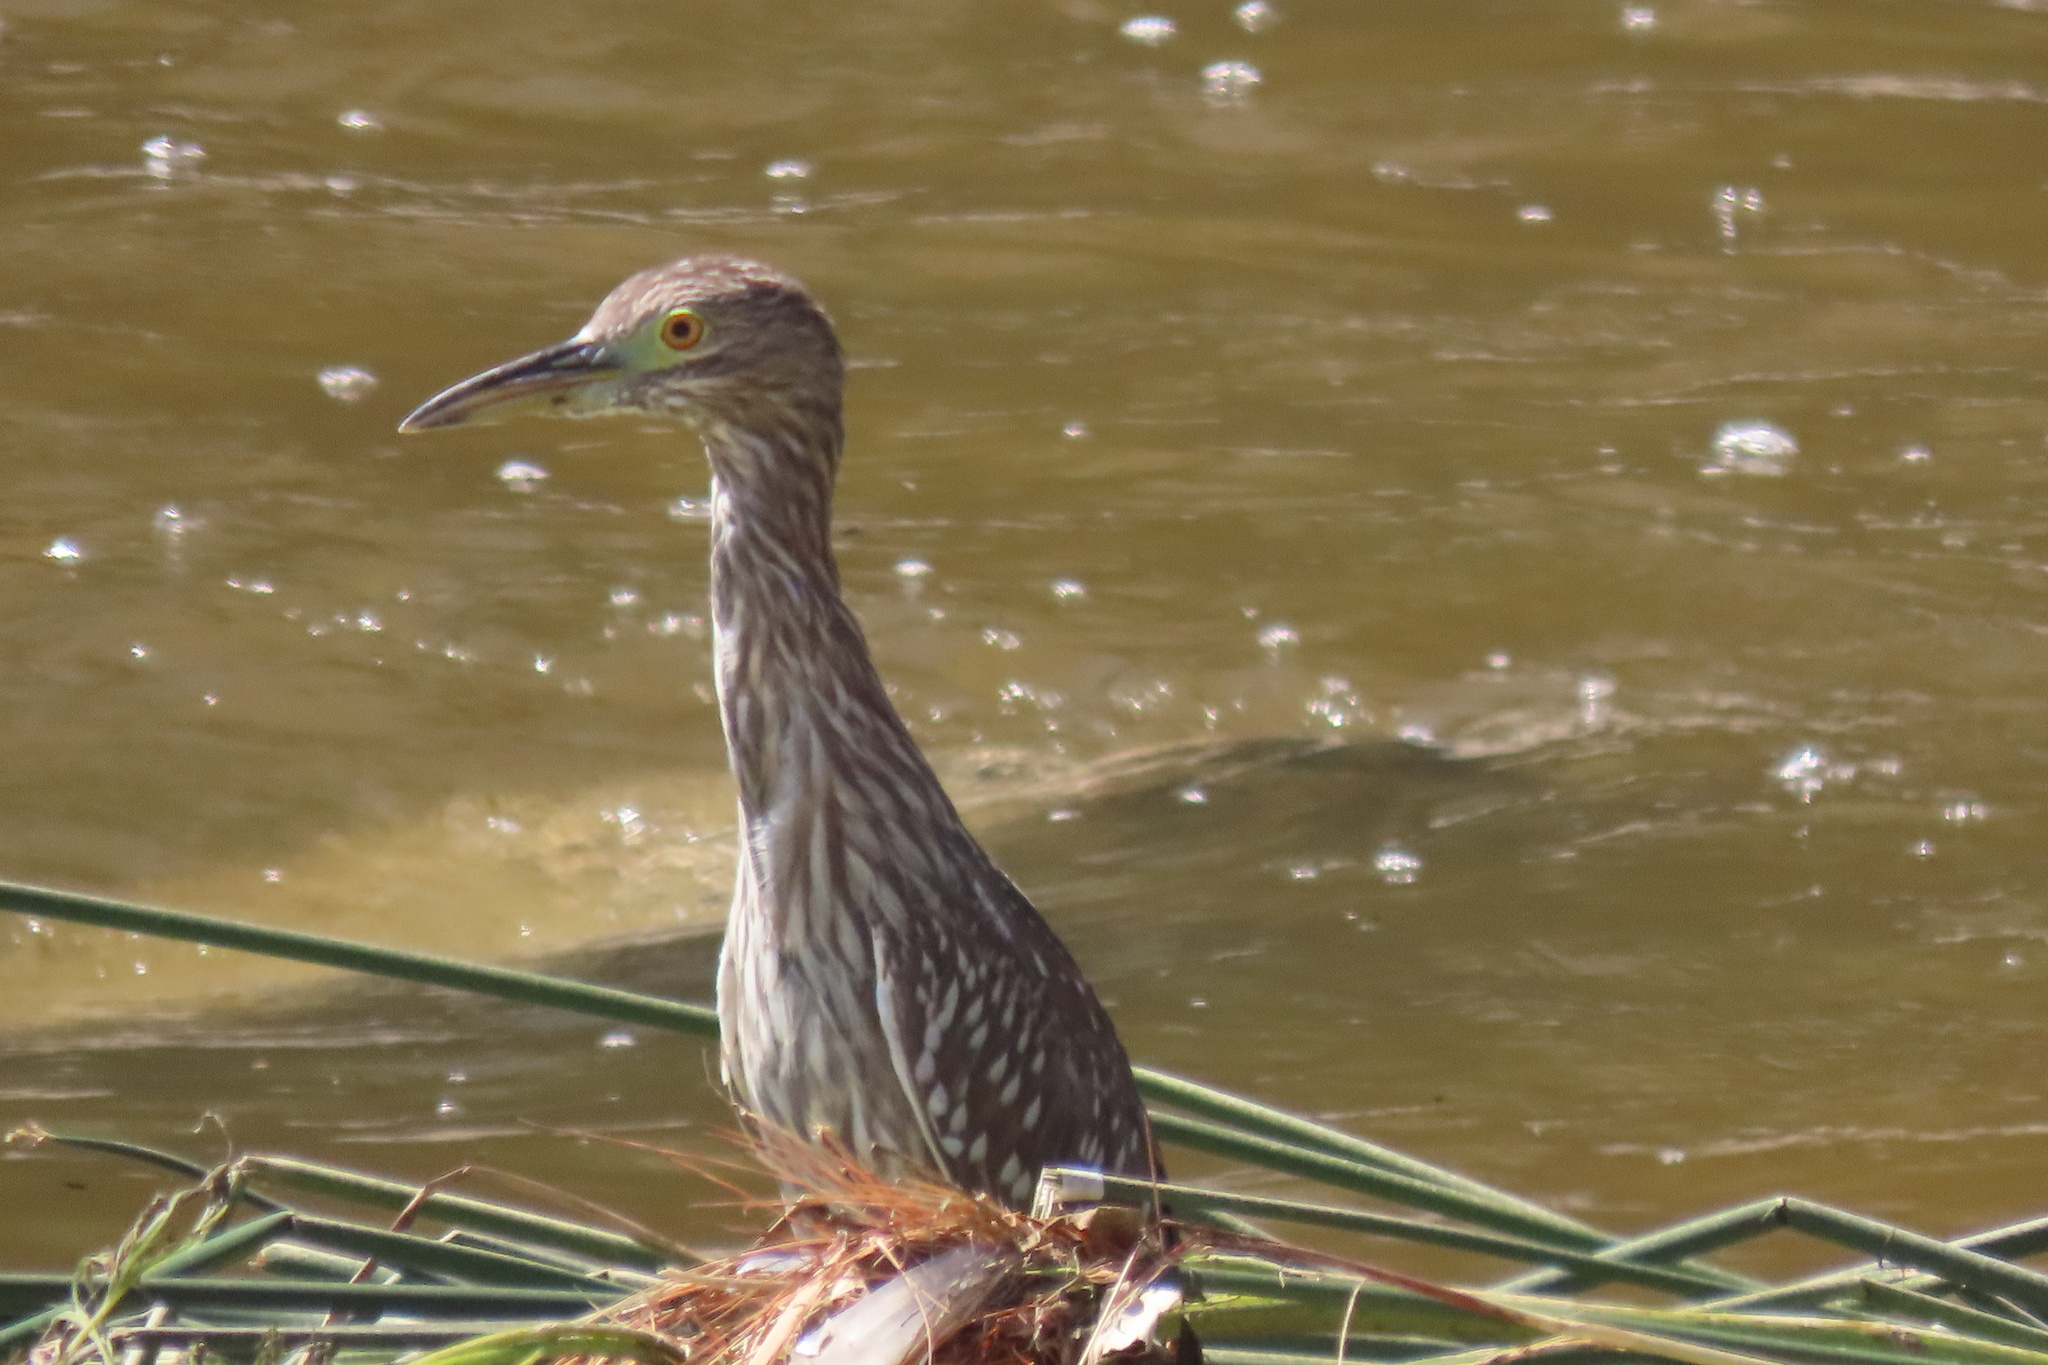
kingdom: Animalia
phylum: Chordata
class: Aves
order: Pelecaniformes
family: Ardeidae
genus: Nycticorax
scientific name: Nycticorax nycticorax
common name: Black-crowned night heron
